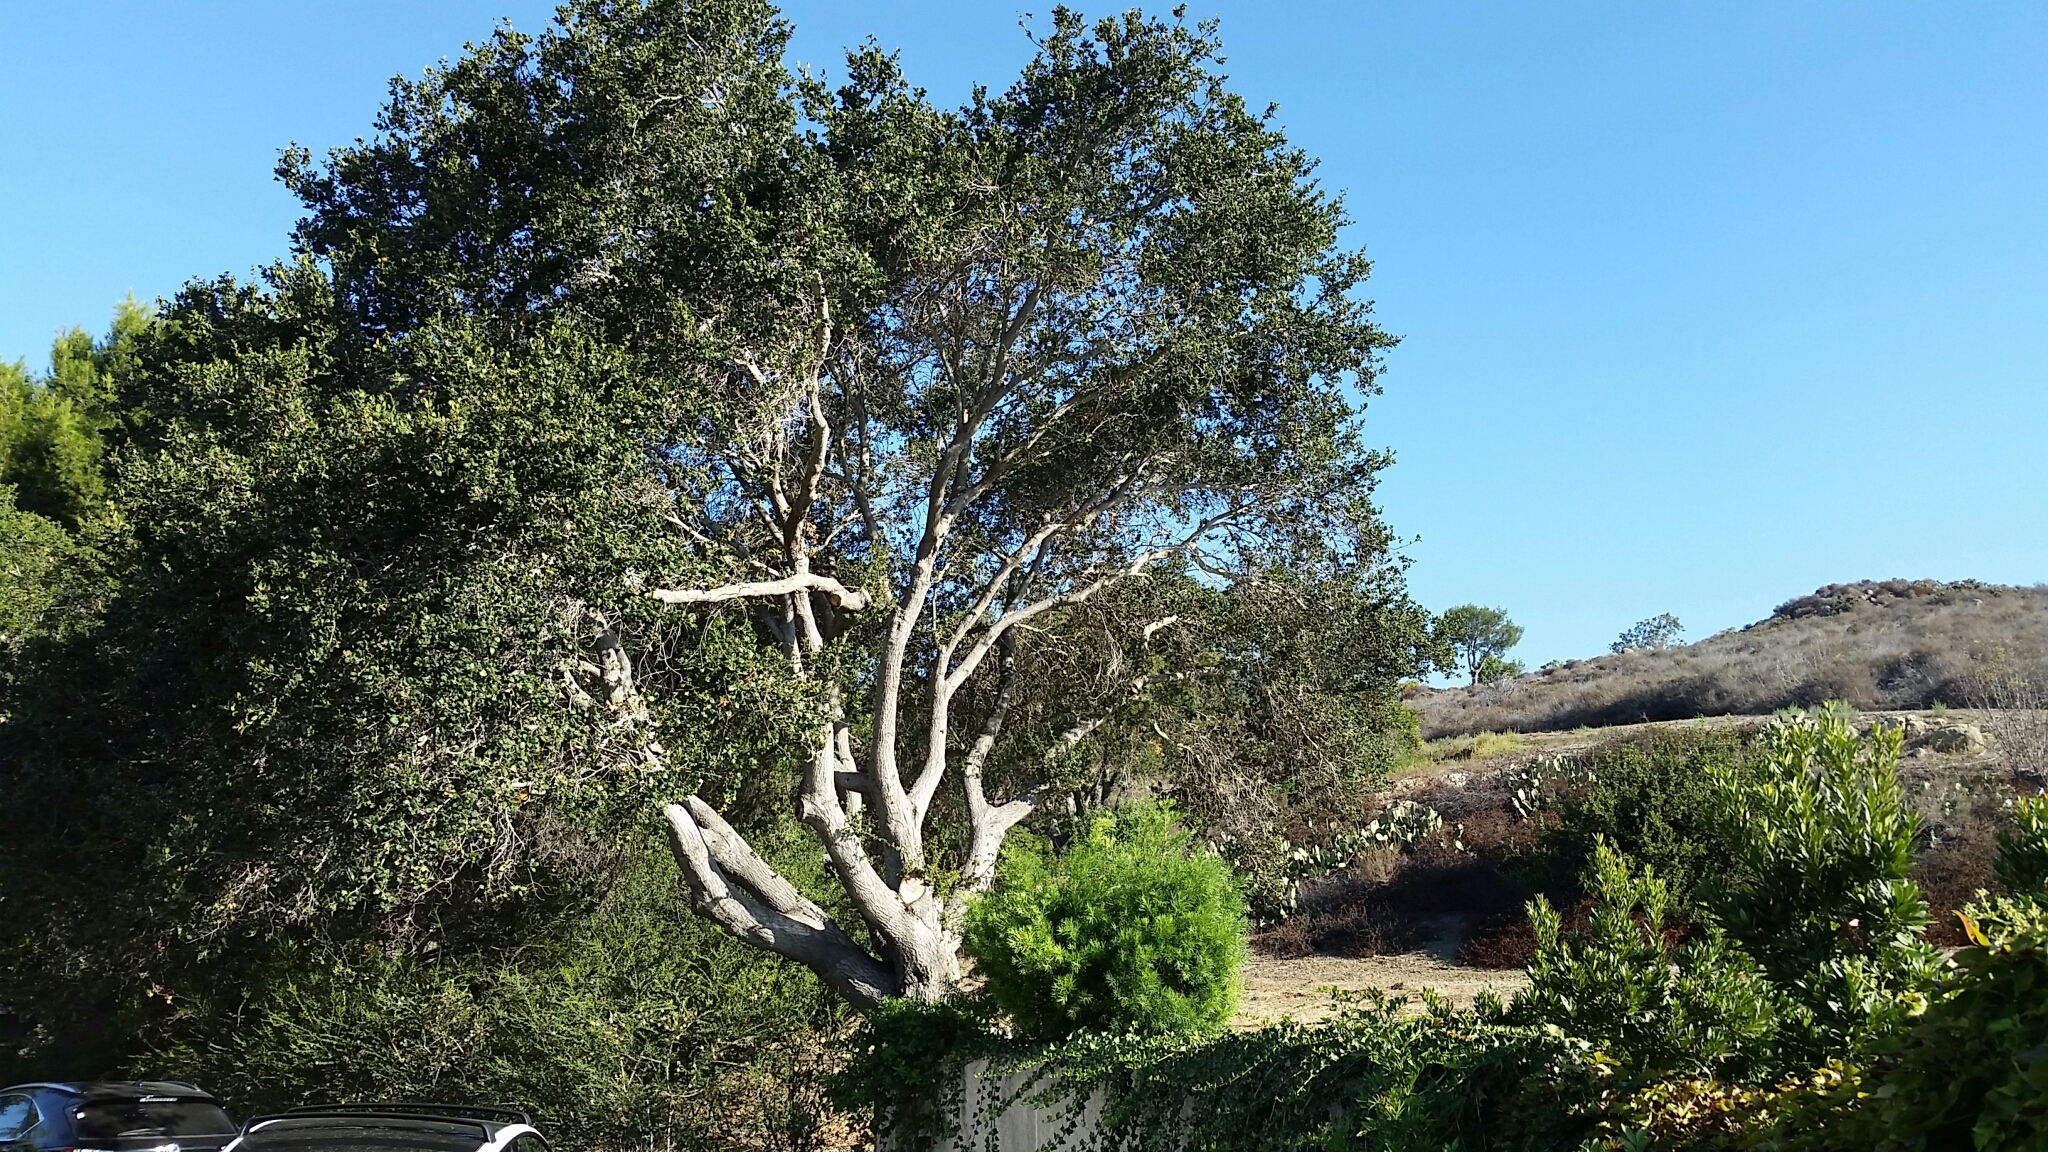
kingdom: Plantae
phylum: Tracheophyta
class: Magnoliopsida
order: Fagales
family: Fagaceae
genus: Quercus
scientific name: Quercus agrifolia
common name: California live oak
